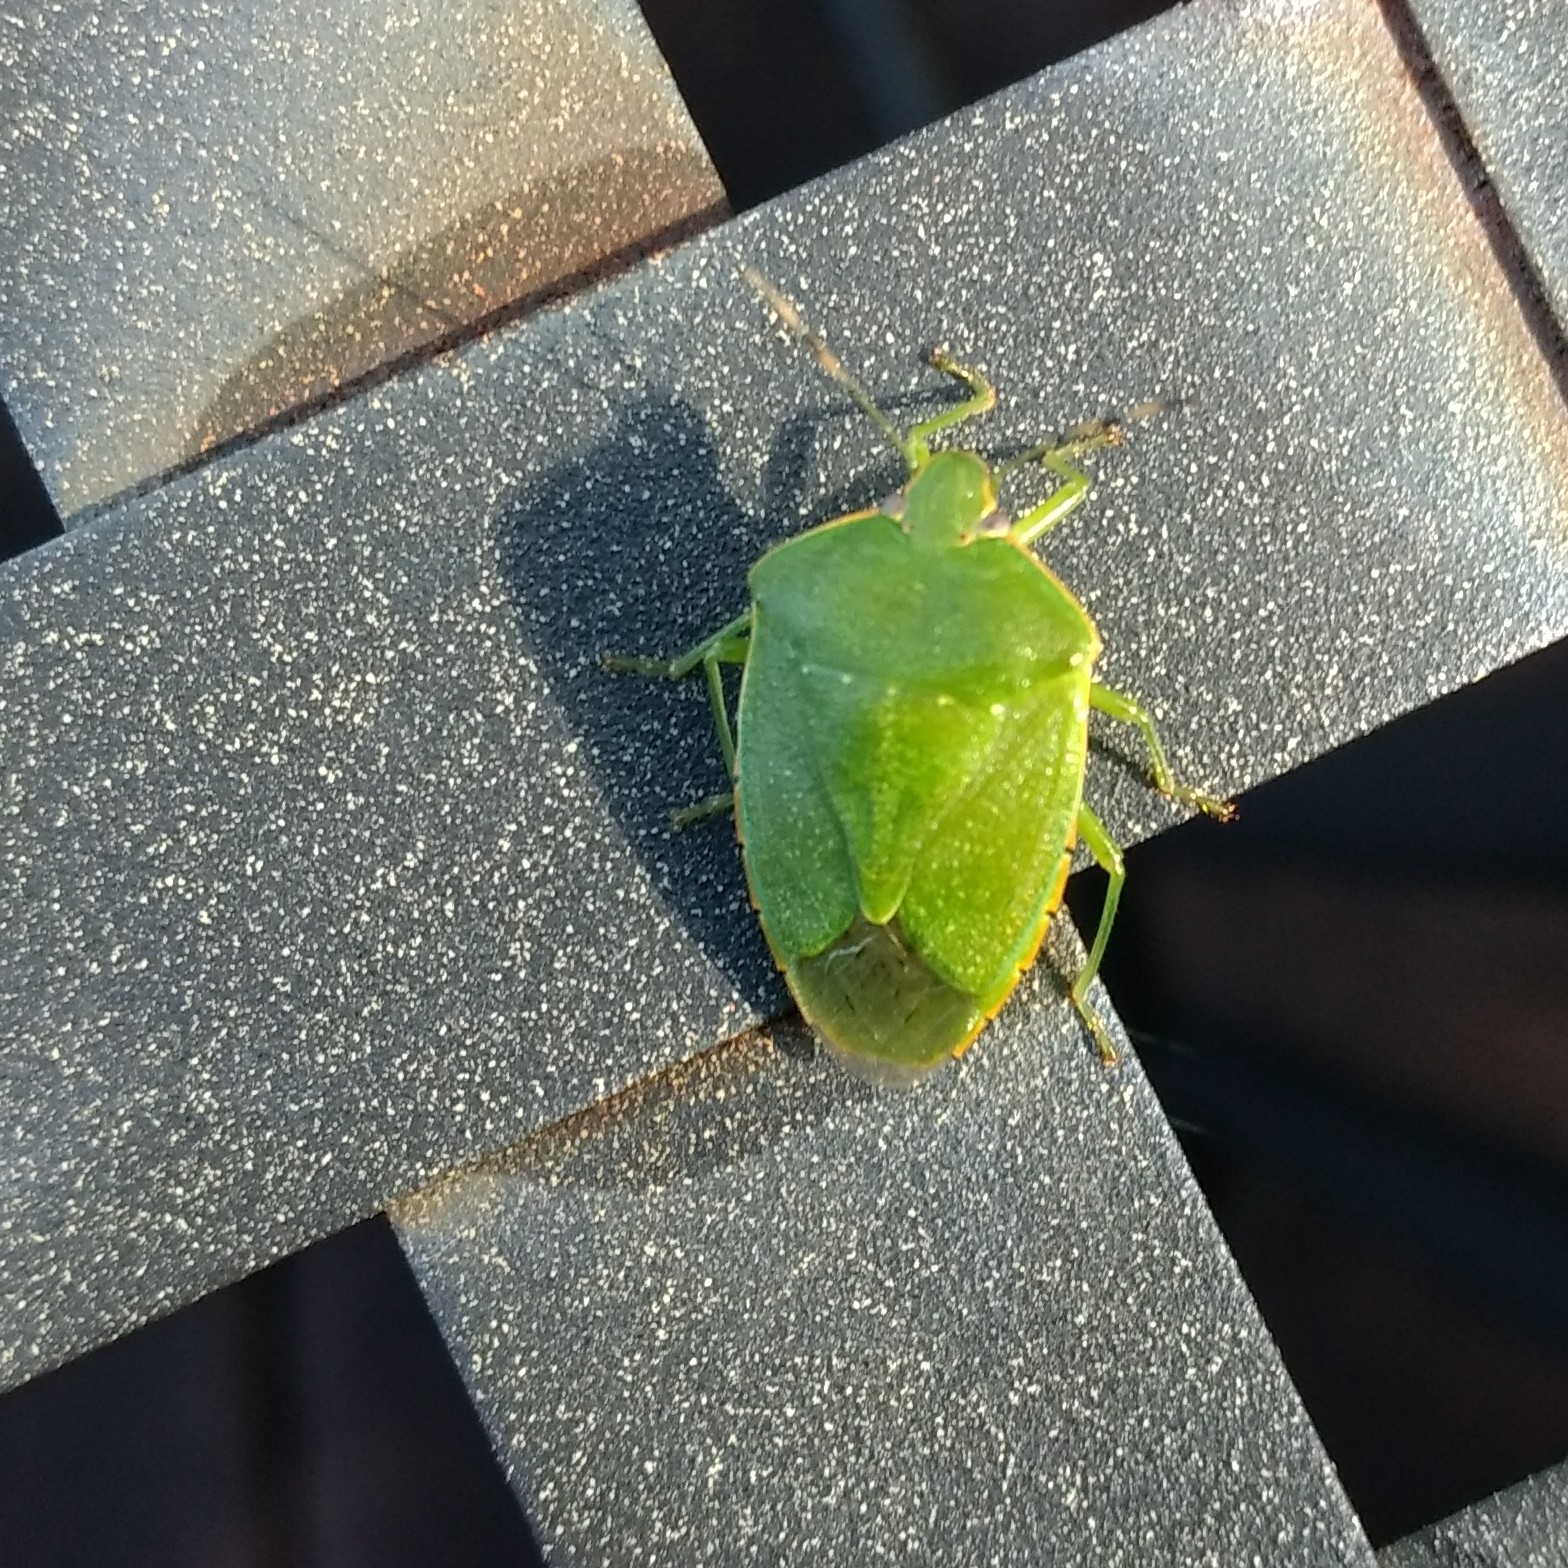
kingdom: Animalia
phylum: Arthropoda
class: Insecta
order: Hemiptera
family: Pentatomidae
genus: Chinavia
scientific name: Chinavia hilaris
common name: Green stink bug
